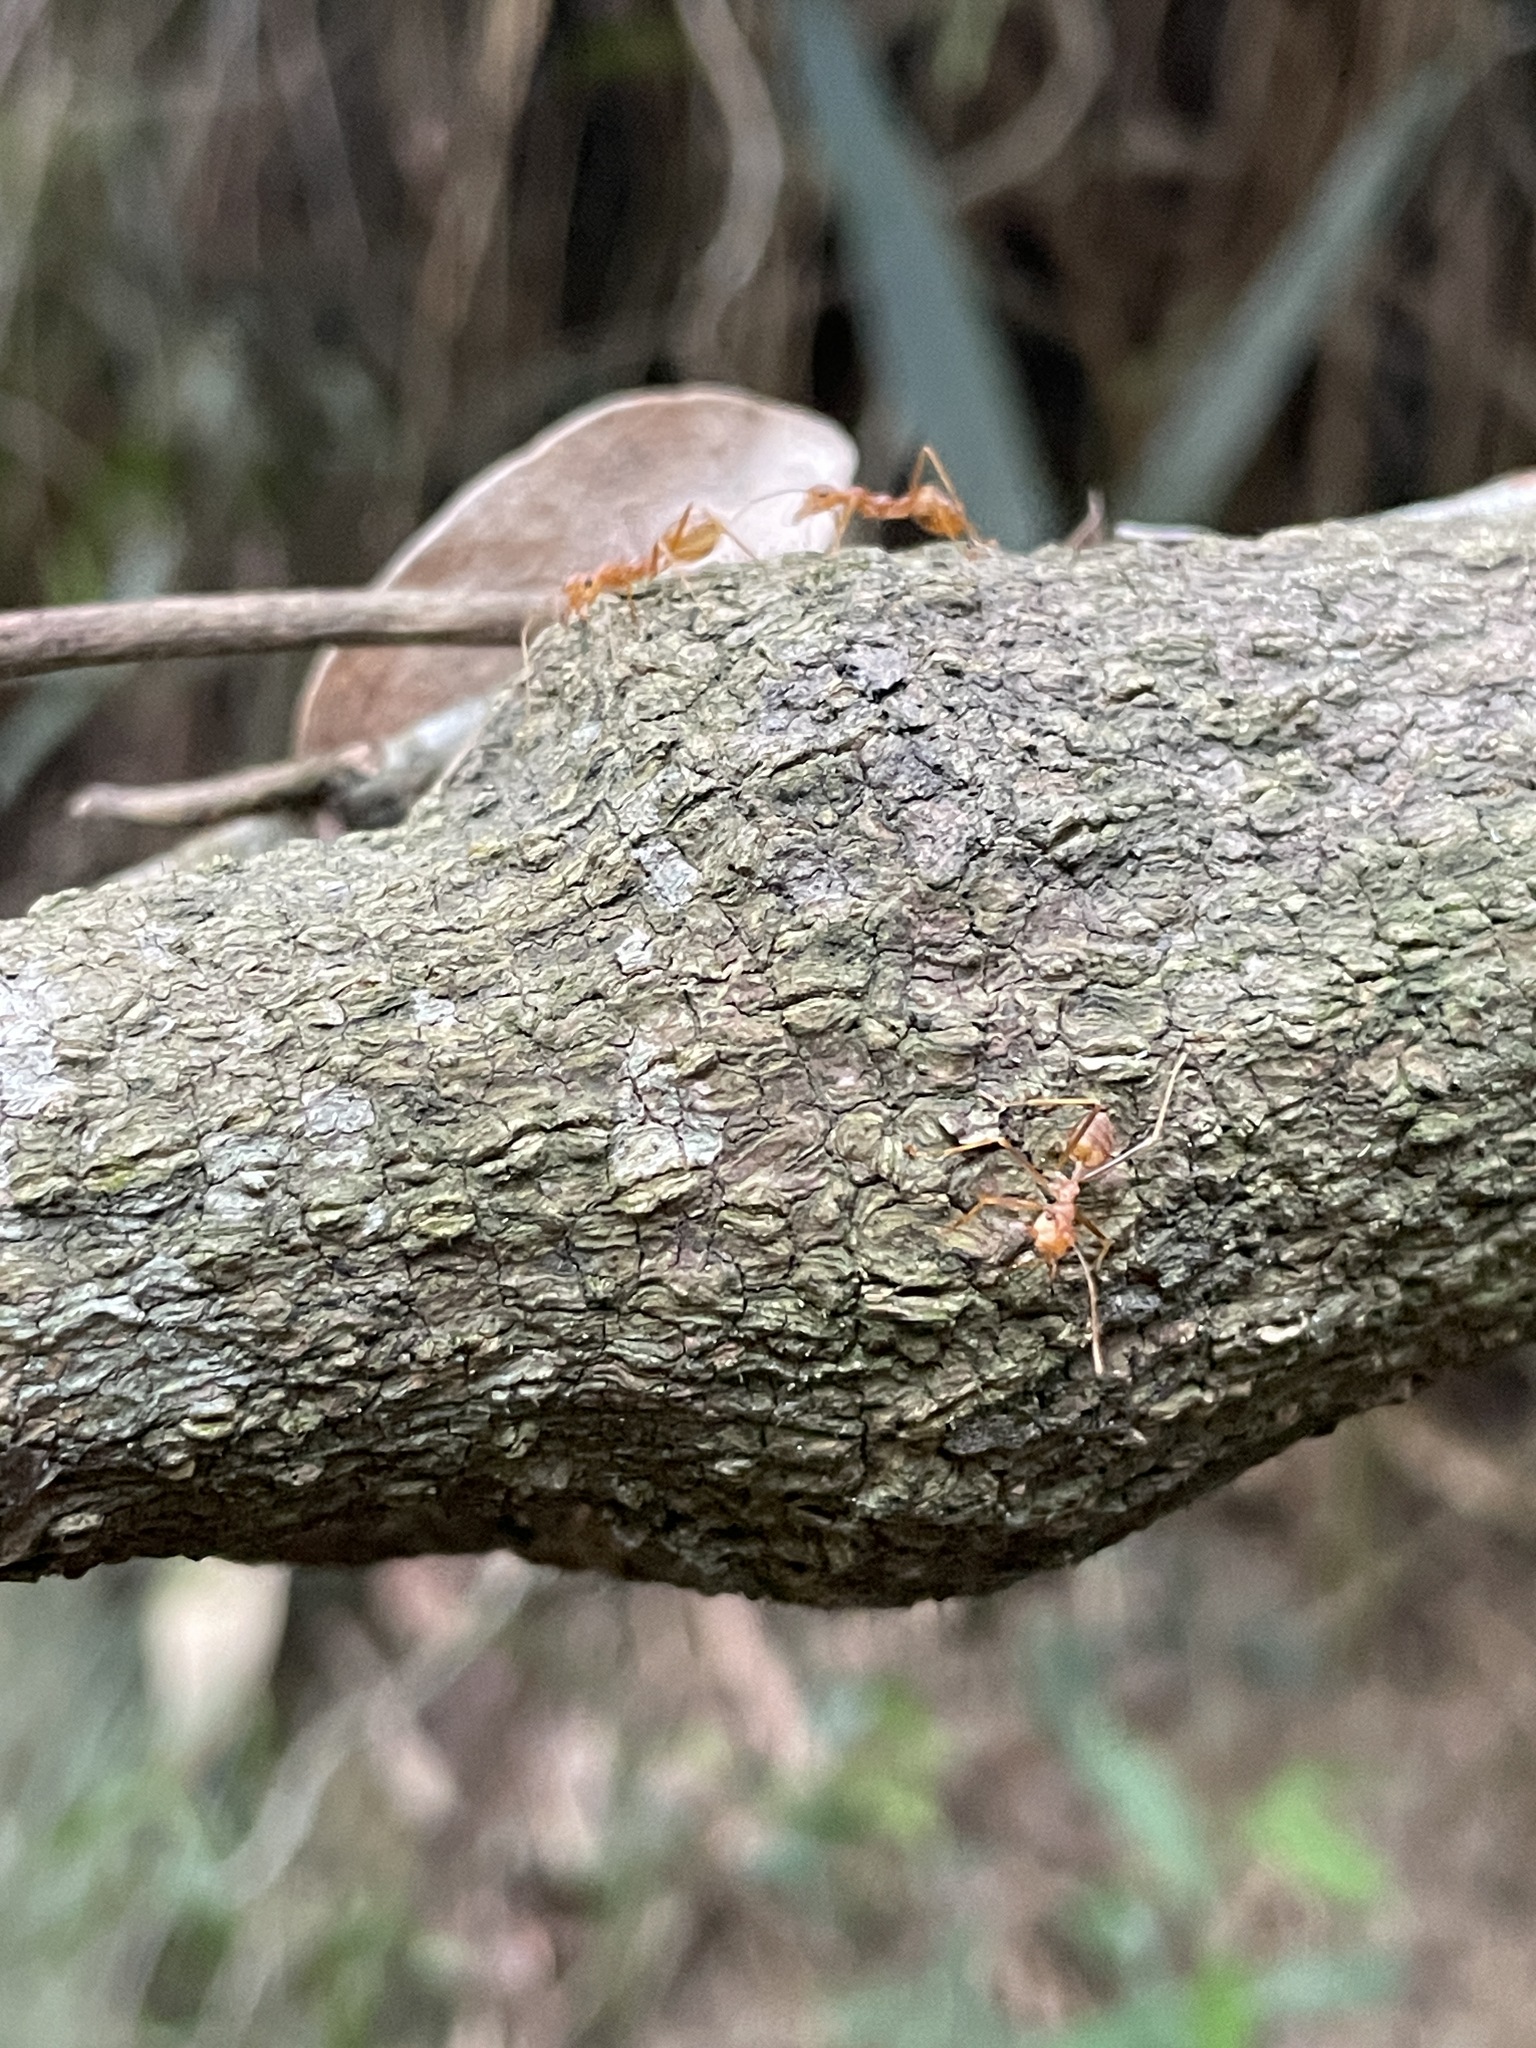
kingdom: Animalia
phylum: Arthropoda
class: Insecta
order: Hymenoptera
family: Formicidae
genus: Oecophylla
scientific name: Oecophylla smaragdina
